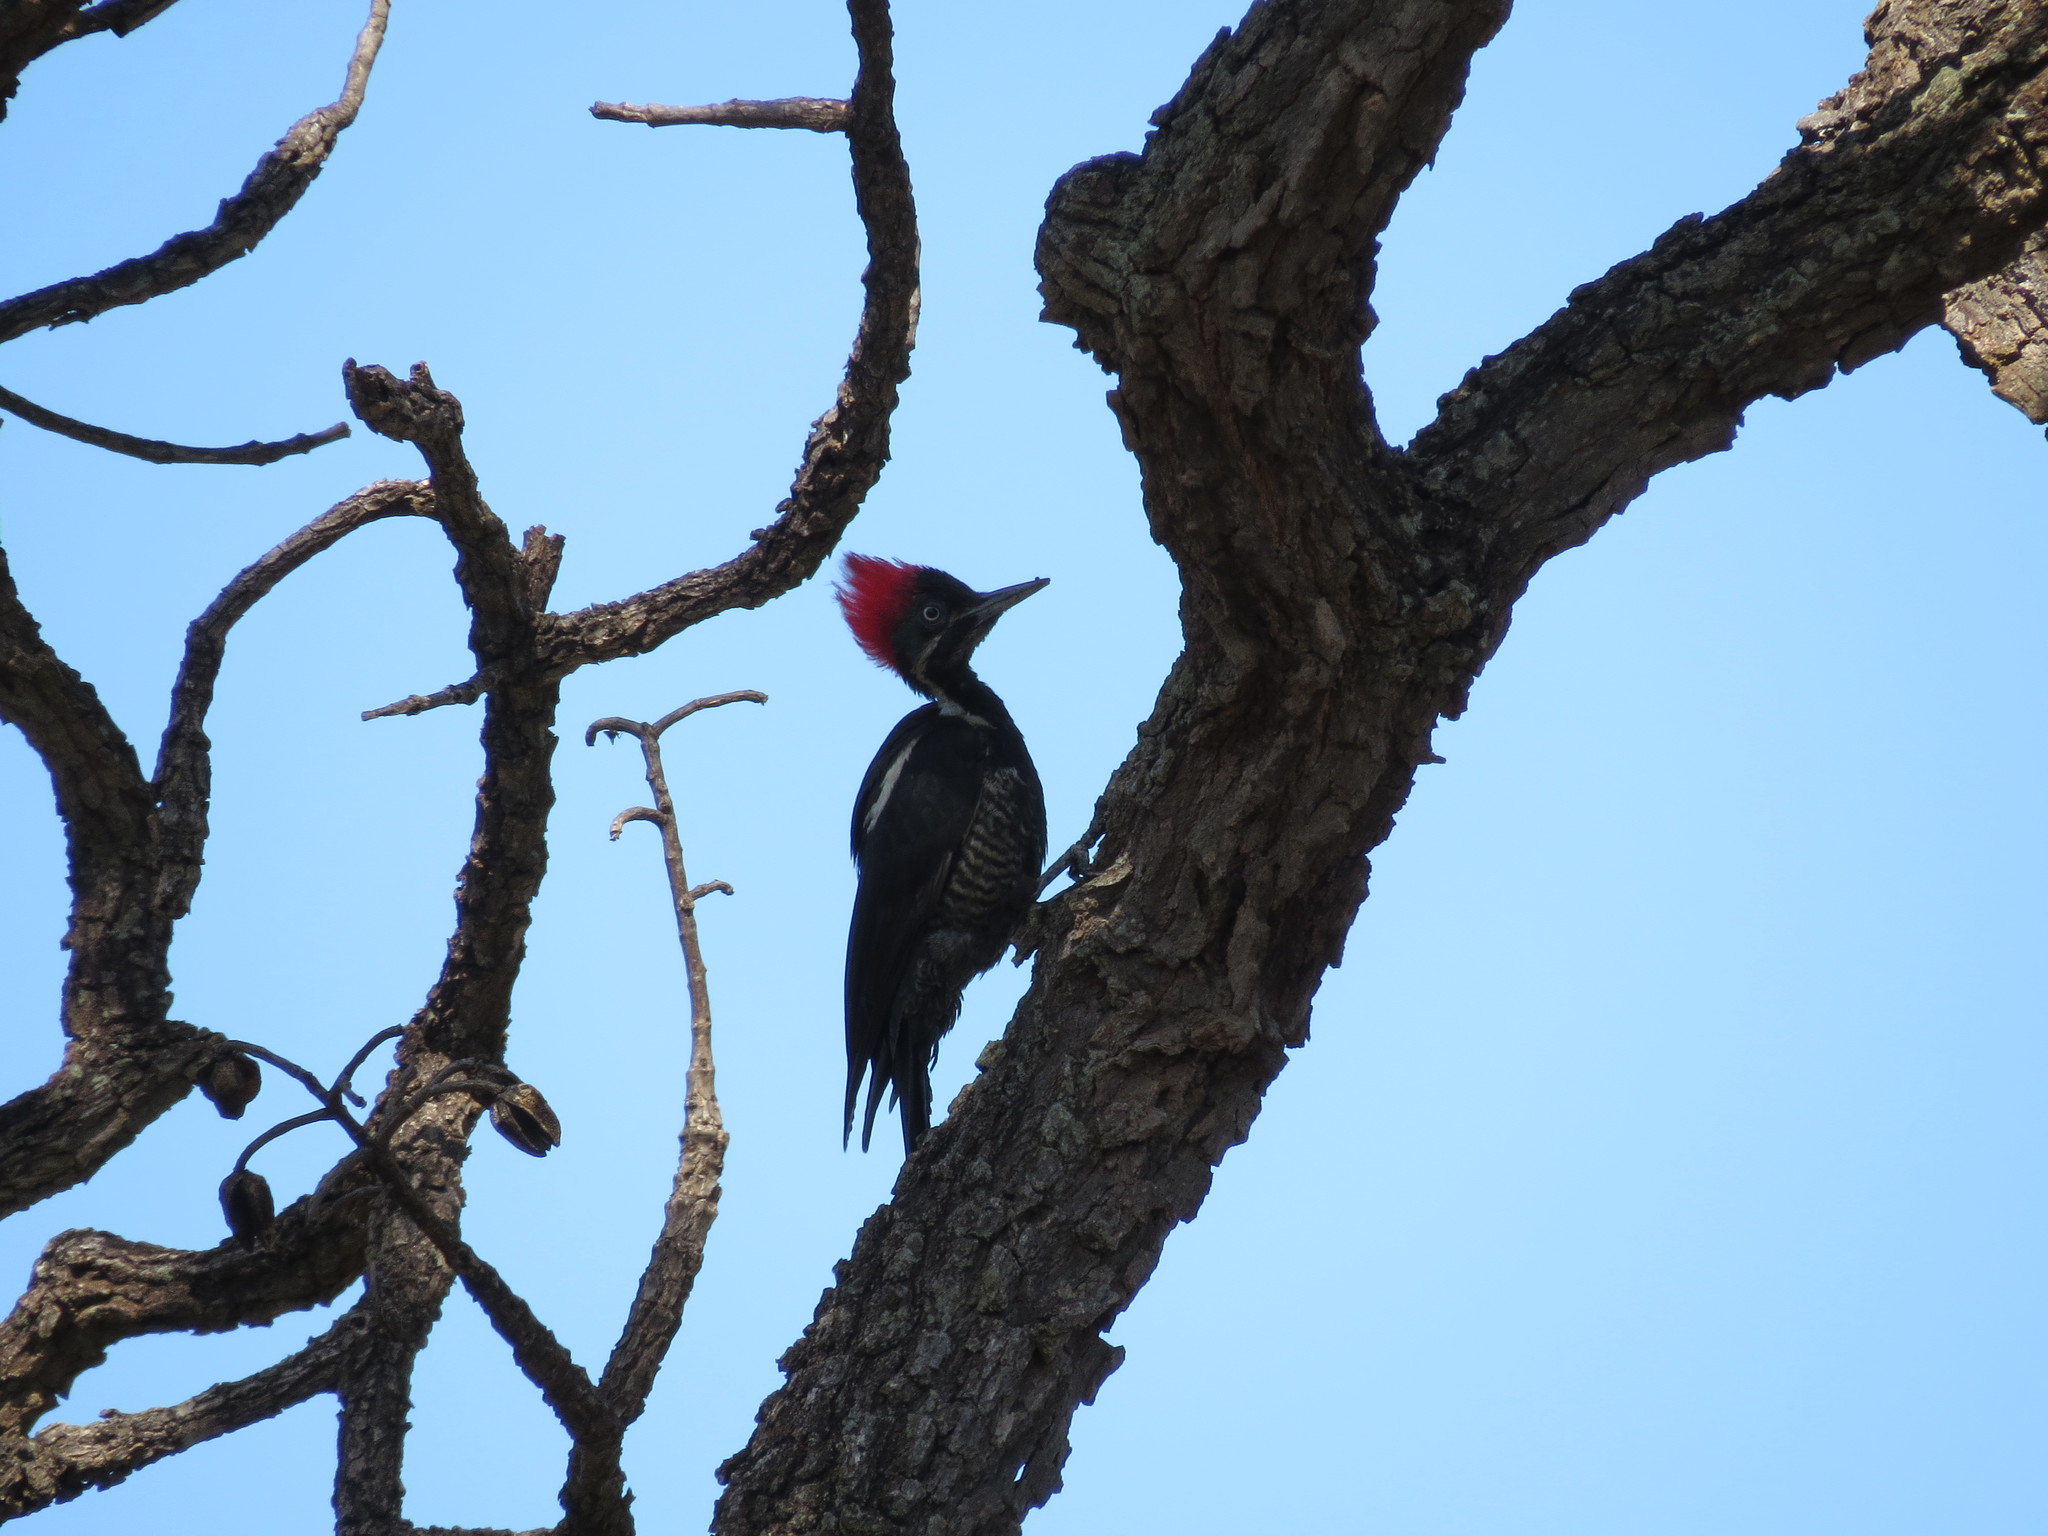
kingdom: Animalia
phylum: Chordata
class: Aves
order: Piciformes
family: Picidae
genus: Dryocopus
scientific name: Dryocopus lineatus
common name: Lineated woodpecker
